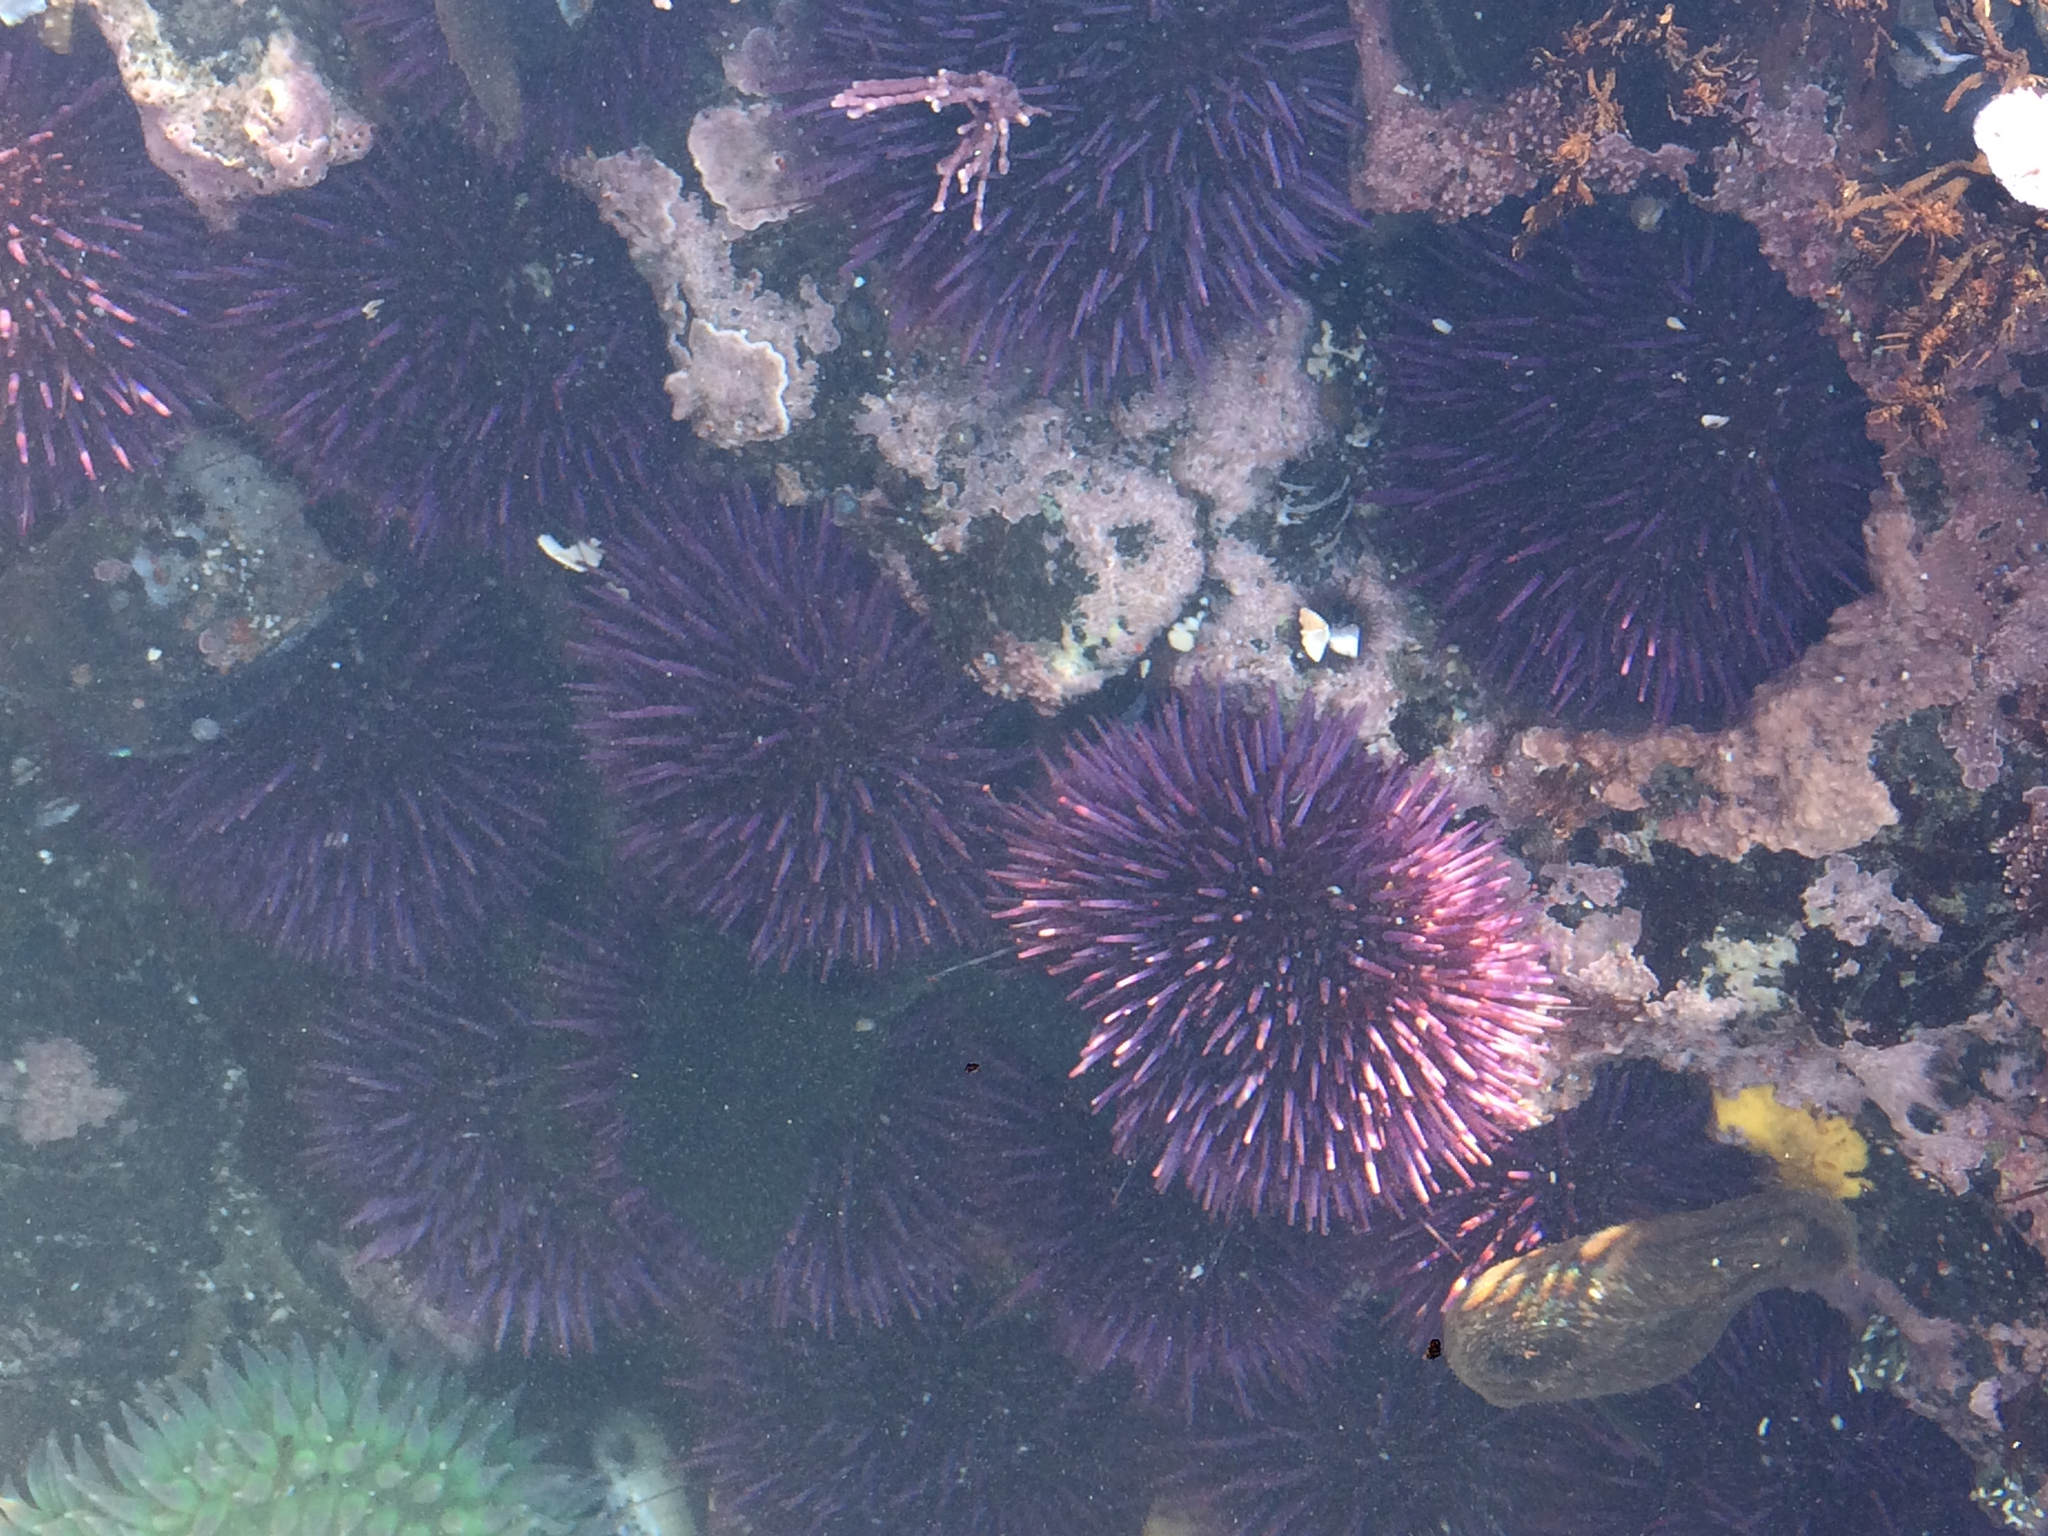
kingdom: Animalia
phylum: Echinodermata
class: Echinoidea
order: Camarodonta
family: Strongylocentrotidae
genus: Strongylocentrotus
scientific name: Strongylocentrotus purpuratus
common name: Purple sea urchin
